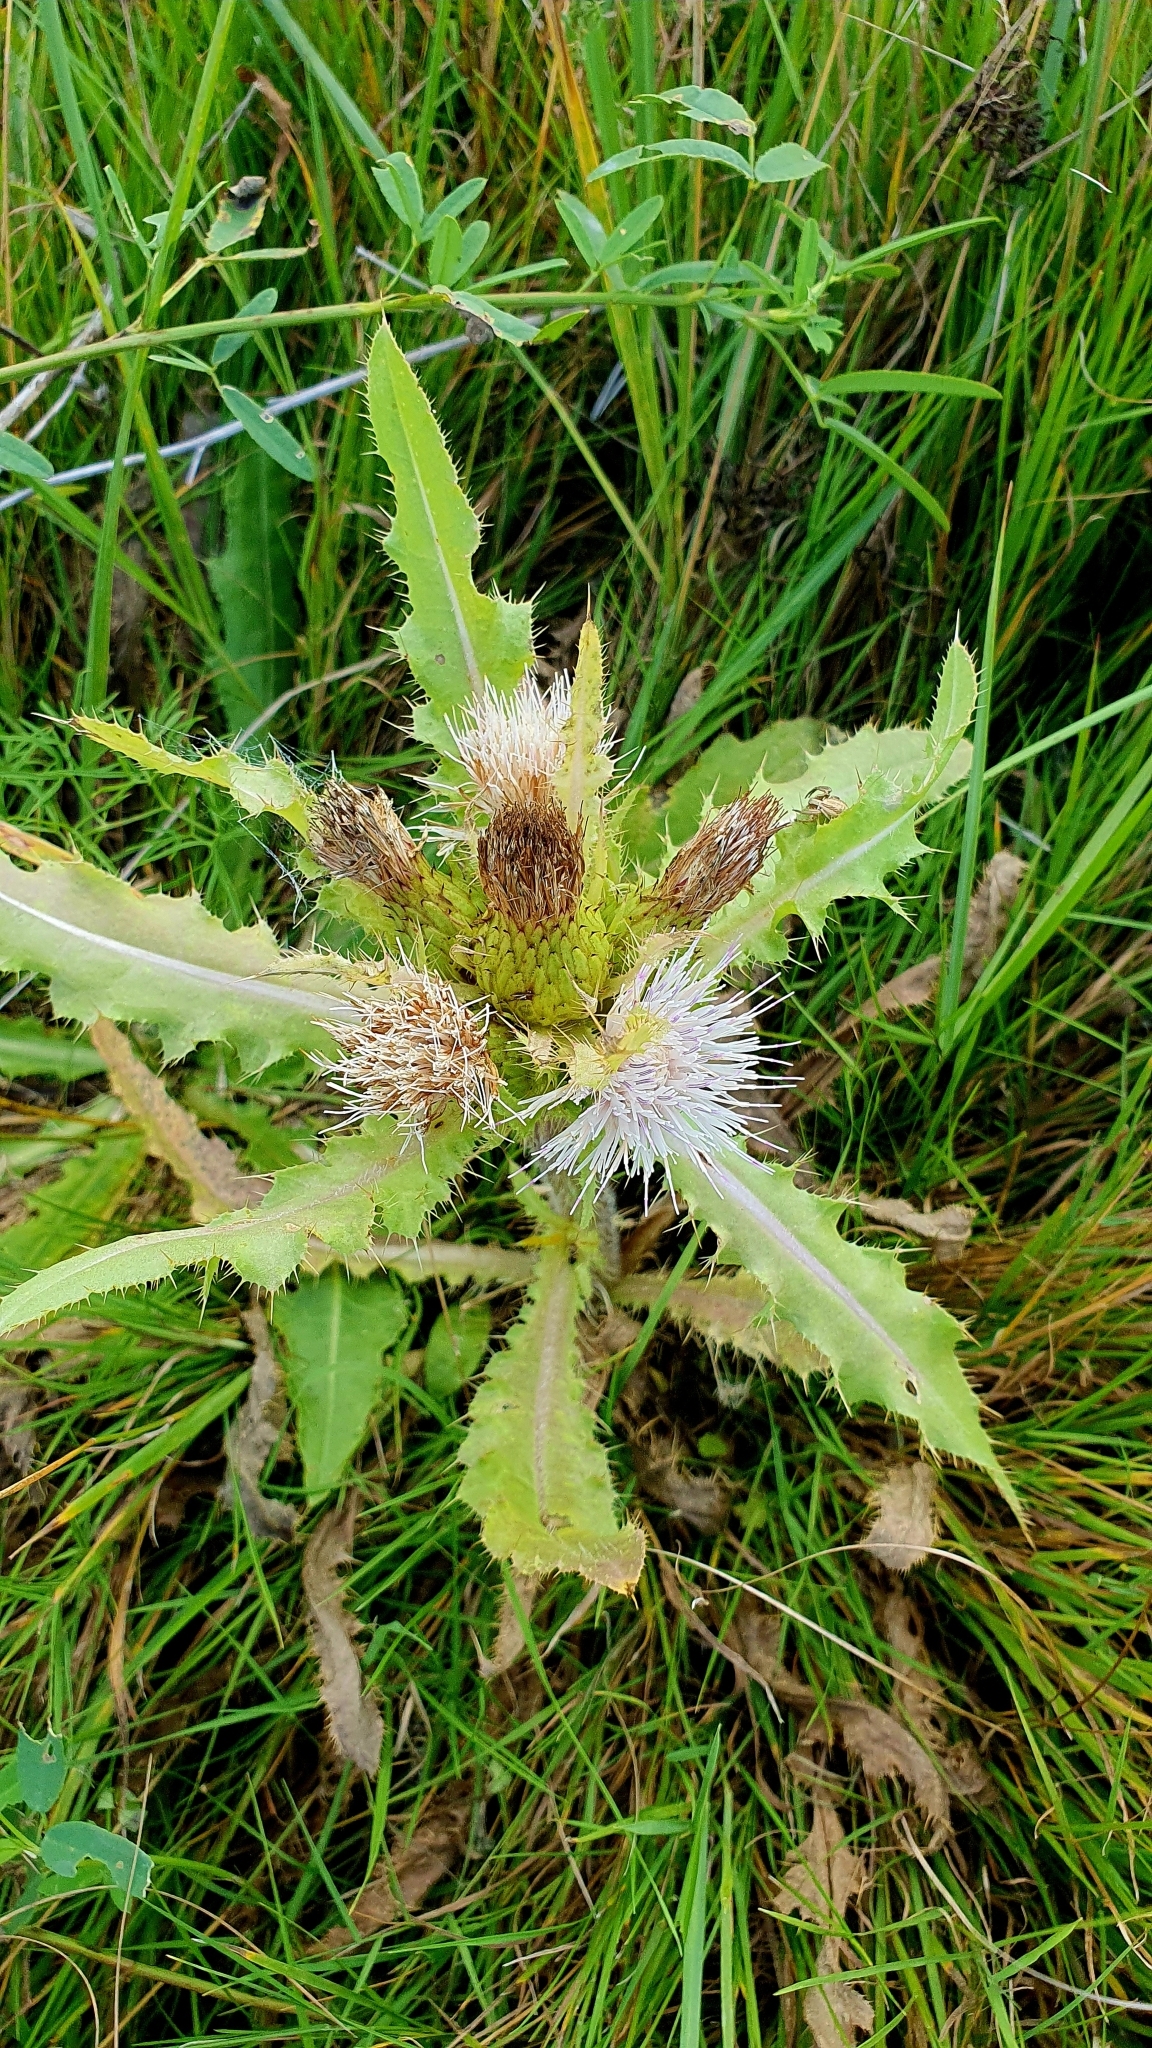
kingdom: Plantae
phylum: Tracheophyta
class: Magnoliopsida
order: Asterales
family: Asteraceae
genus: Cirsium
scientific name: Cirsium esculentum
